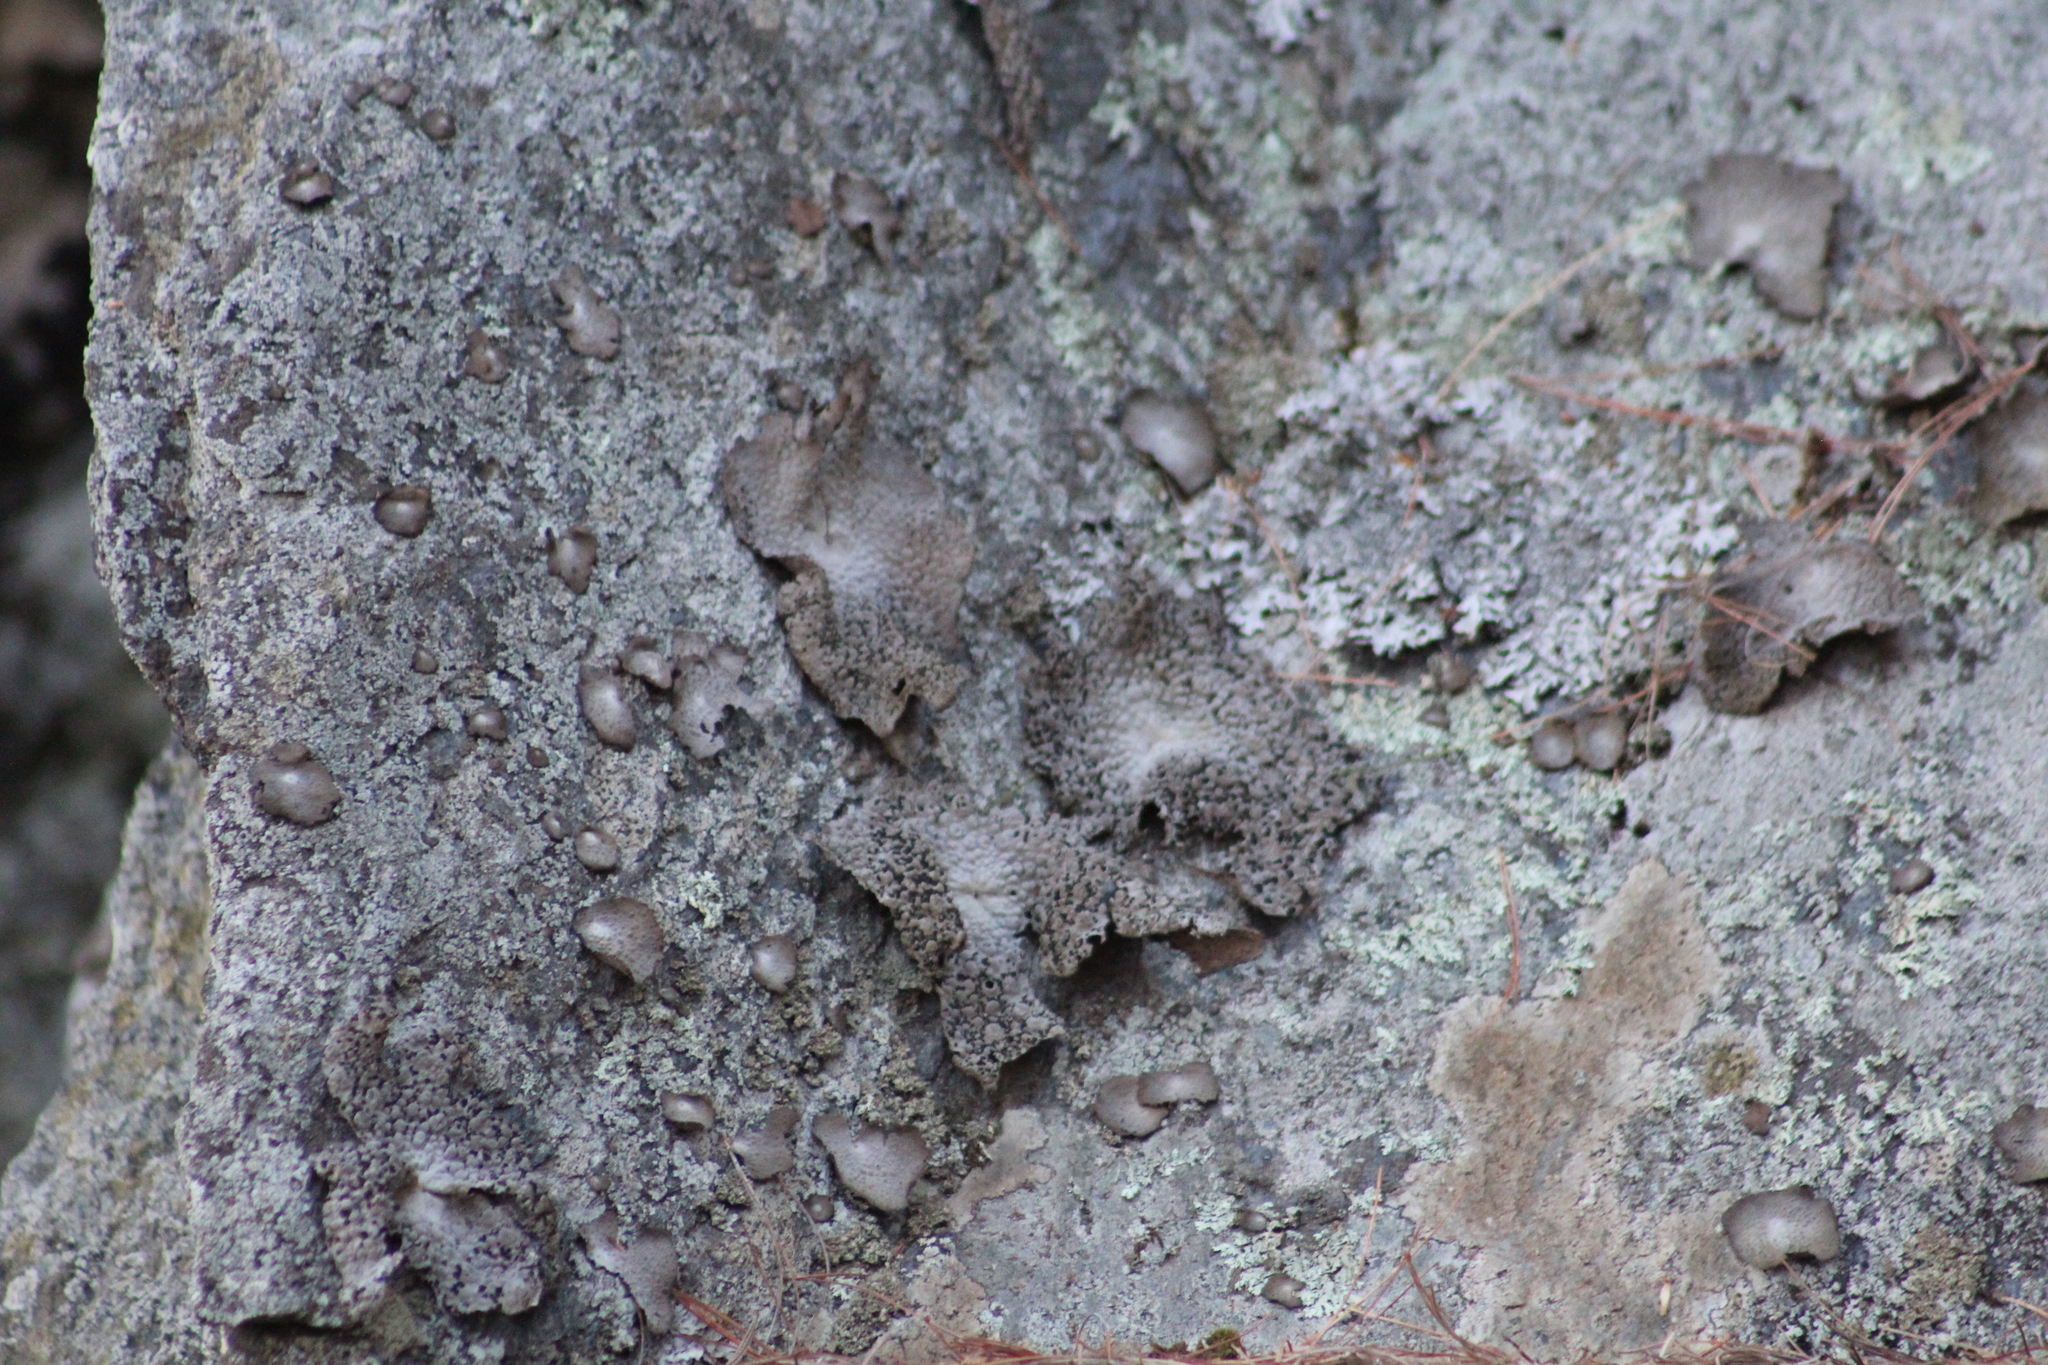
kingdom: Fungi
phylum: Ascomycota
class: Lecanoromycetes
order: Umbilicariales
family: Umbilicariaceae
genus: Lasallia
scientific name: Lasallia papulosa
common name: Common toadskin lichen
